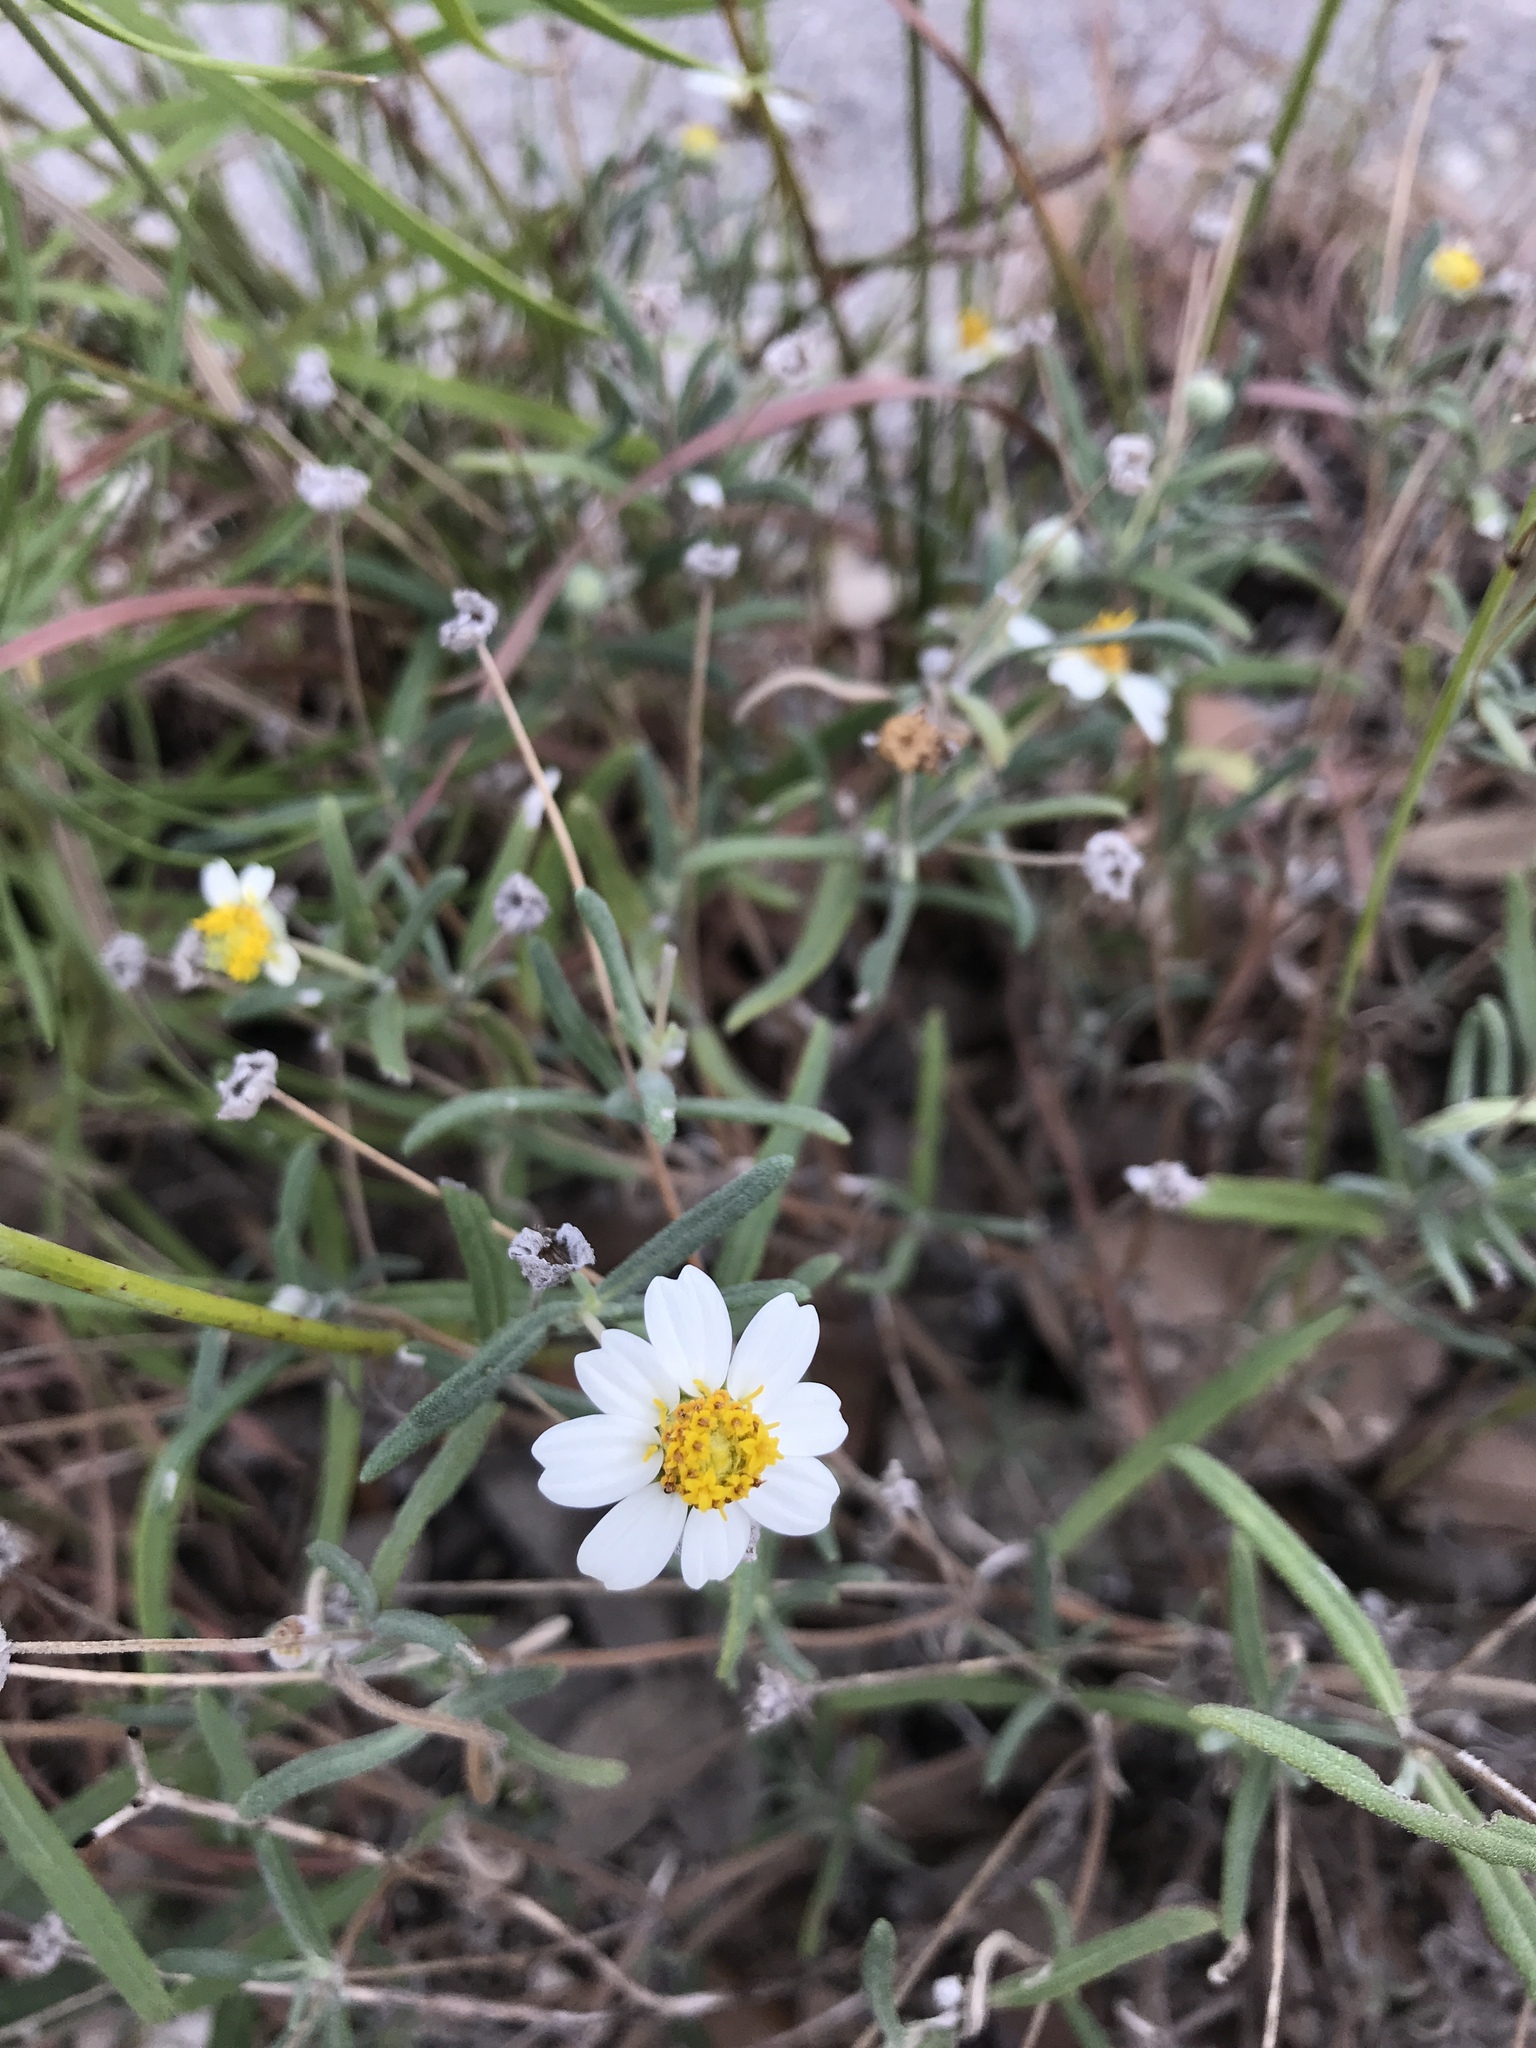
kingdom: Plantae
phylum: Tracheophyta
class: Magnoliopsida
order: Asterales
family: Asteraceae
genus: Melampodium
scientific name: Melampodium leucanthum
